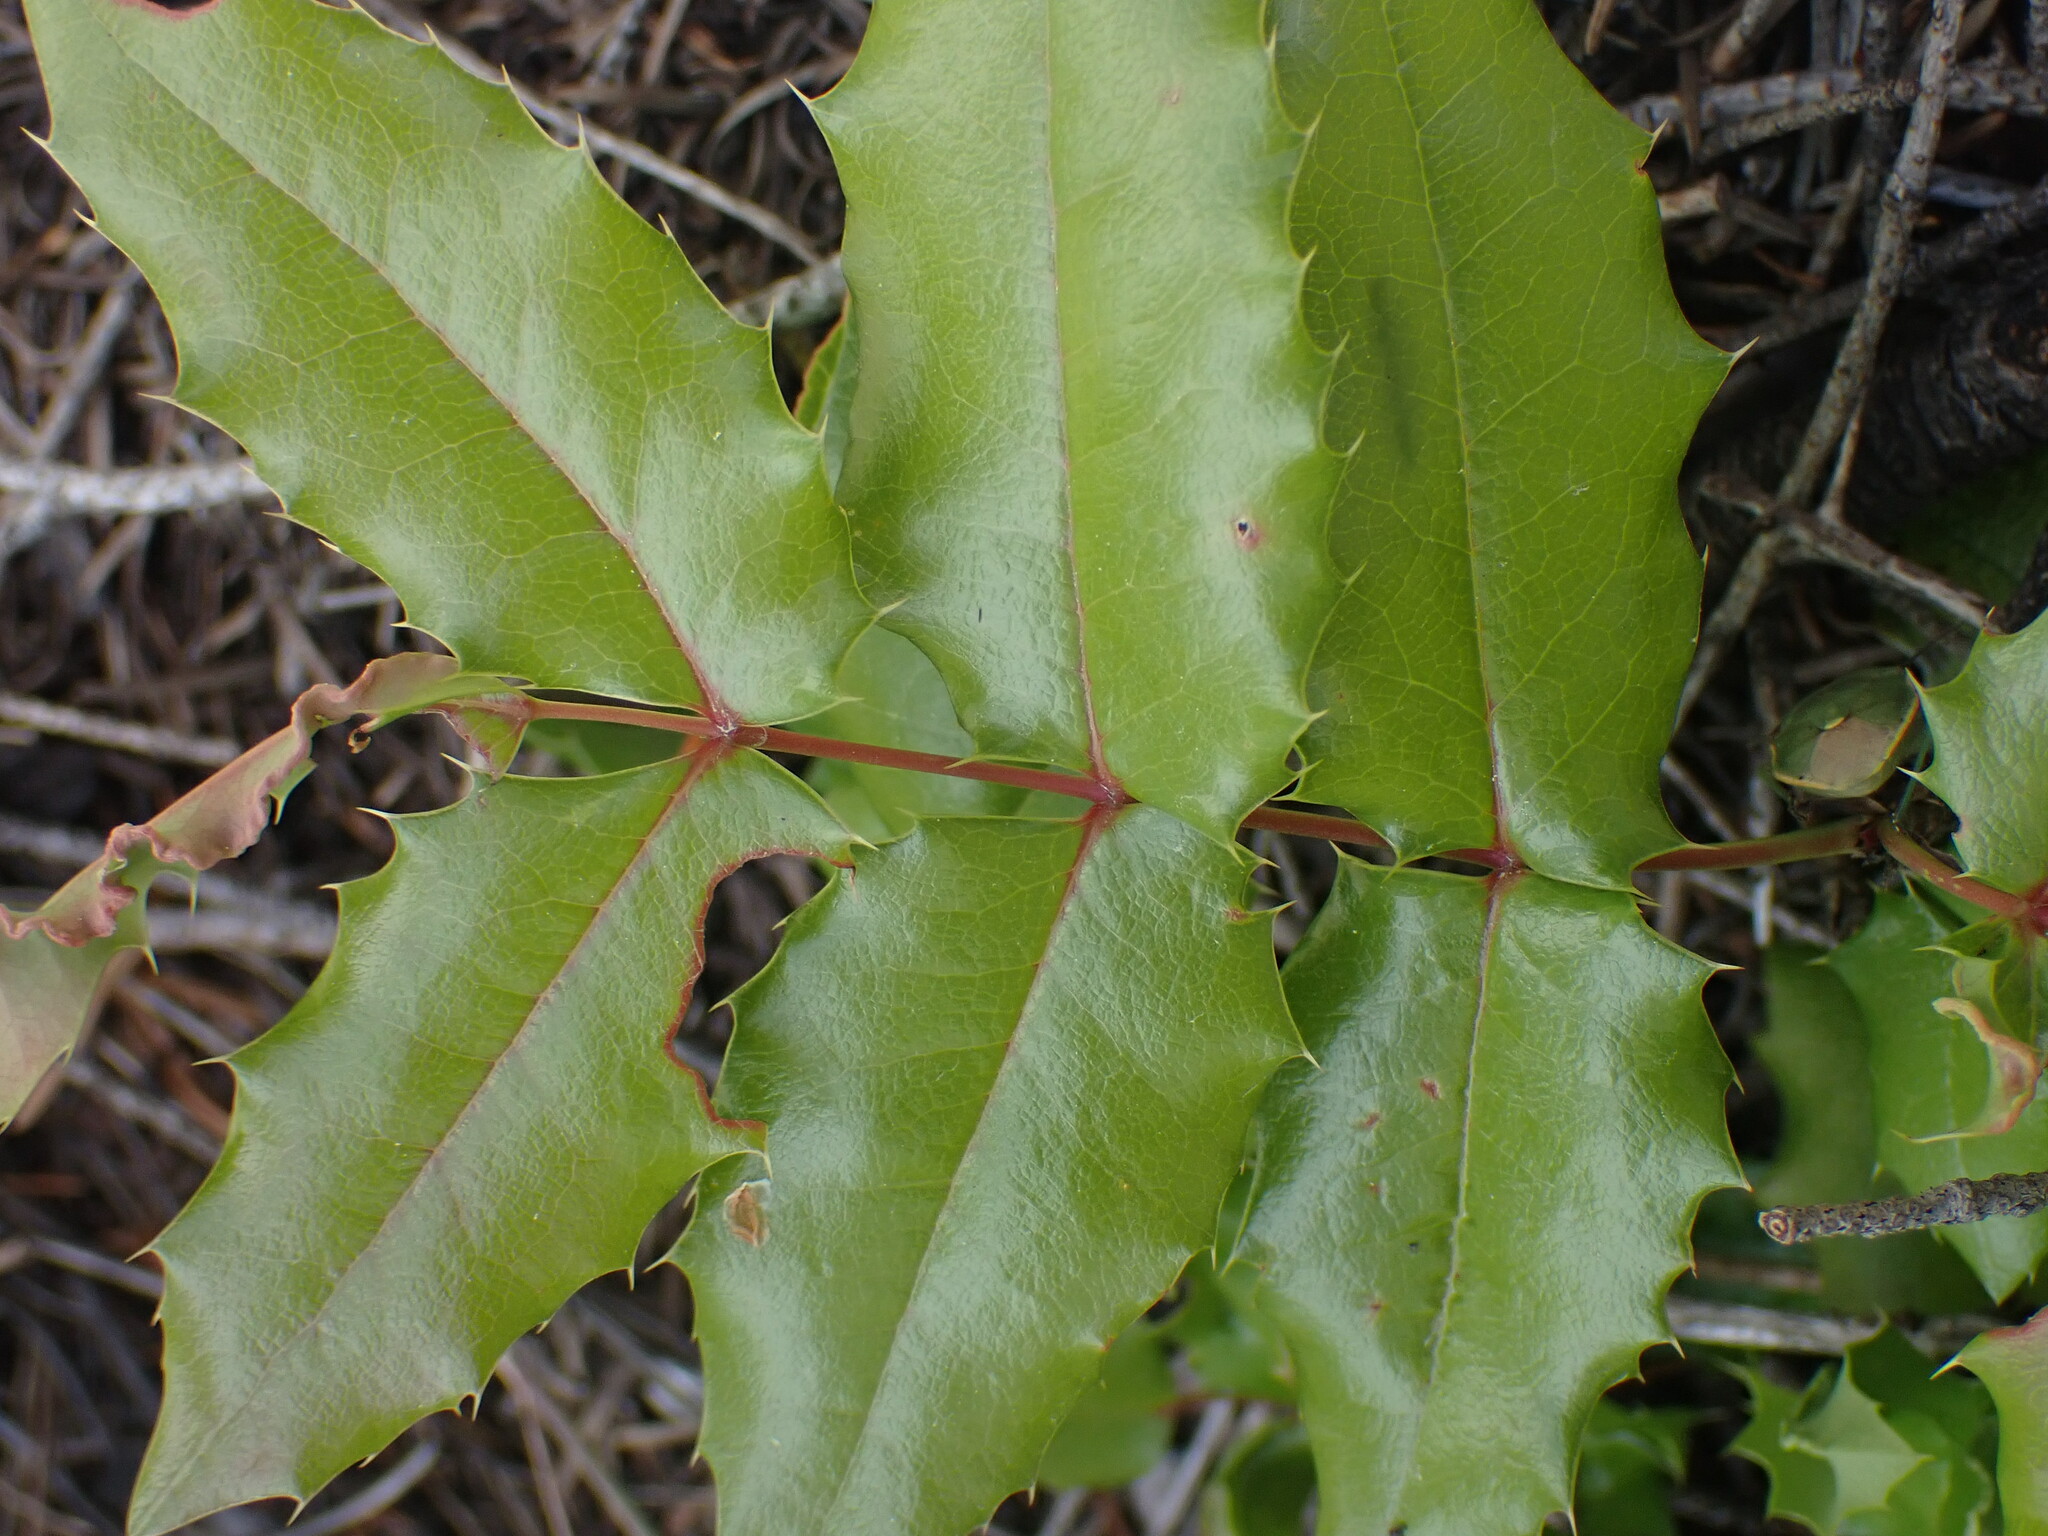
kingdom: Plantae
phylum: Tracheophyta
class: Magnoliopsida
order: Ranunculales
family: Berberidaceae
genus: Mahonia
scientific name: Mahonia aquifolium
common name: Oregon-grape
